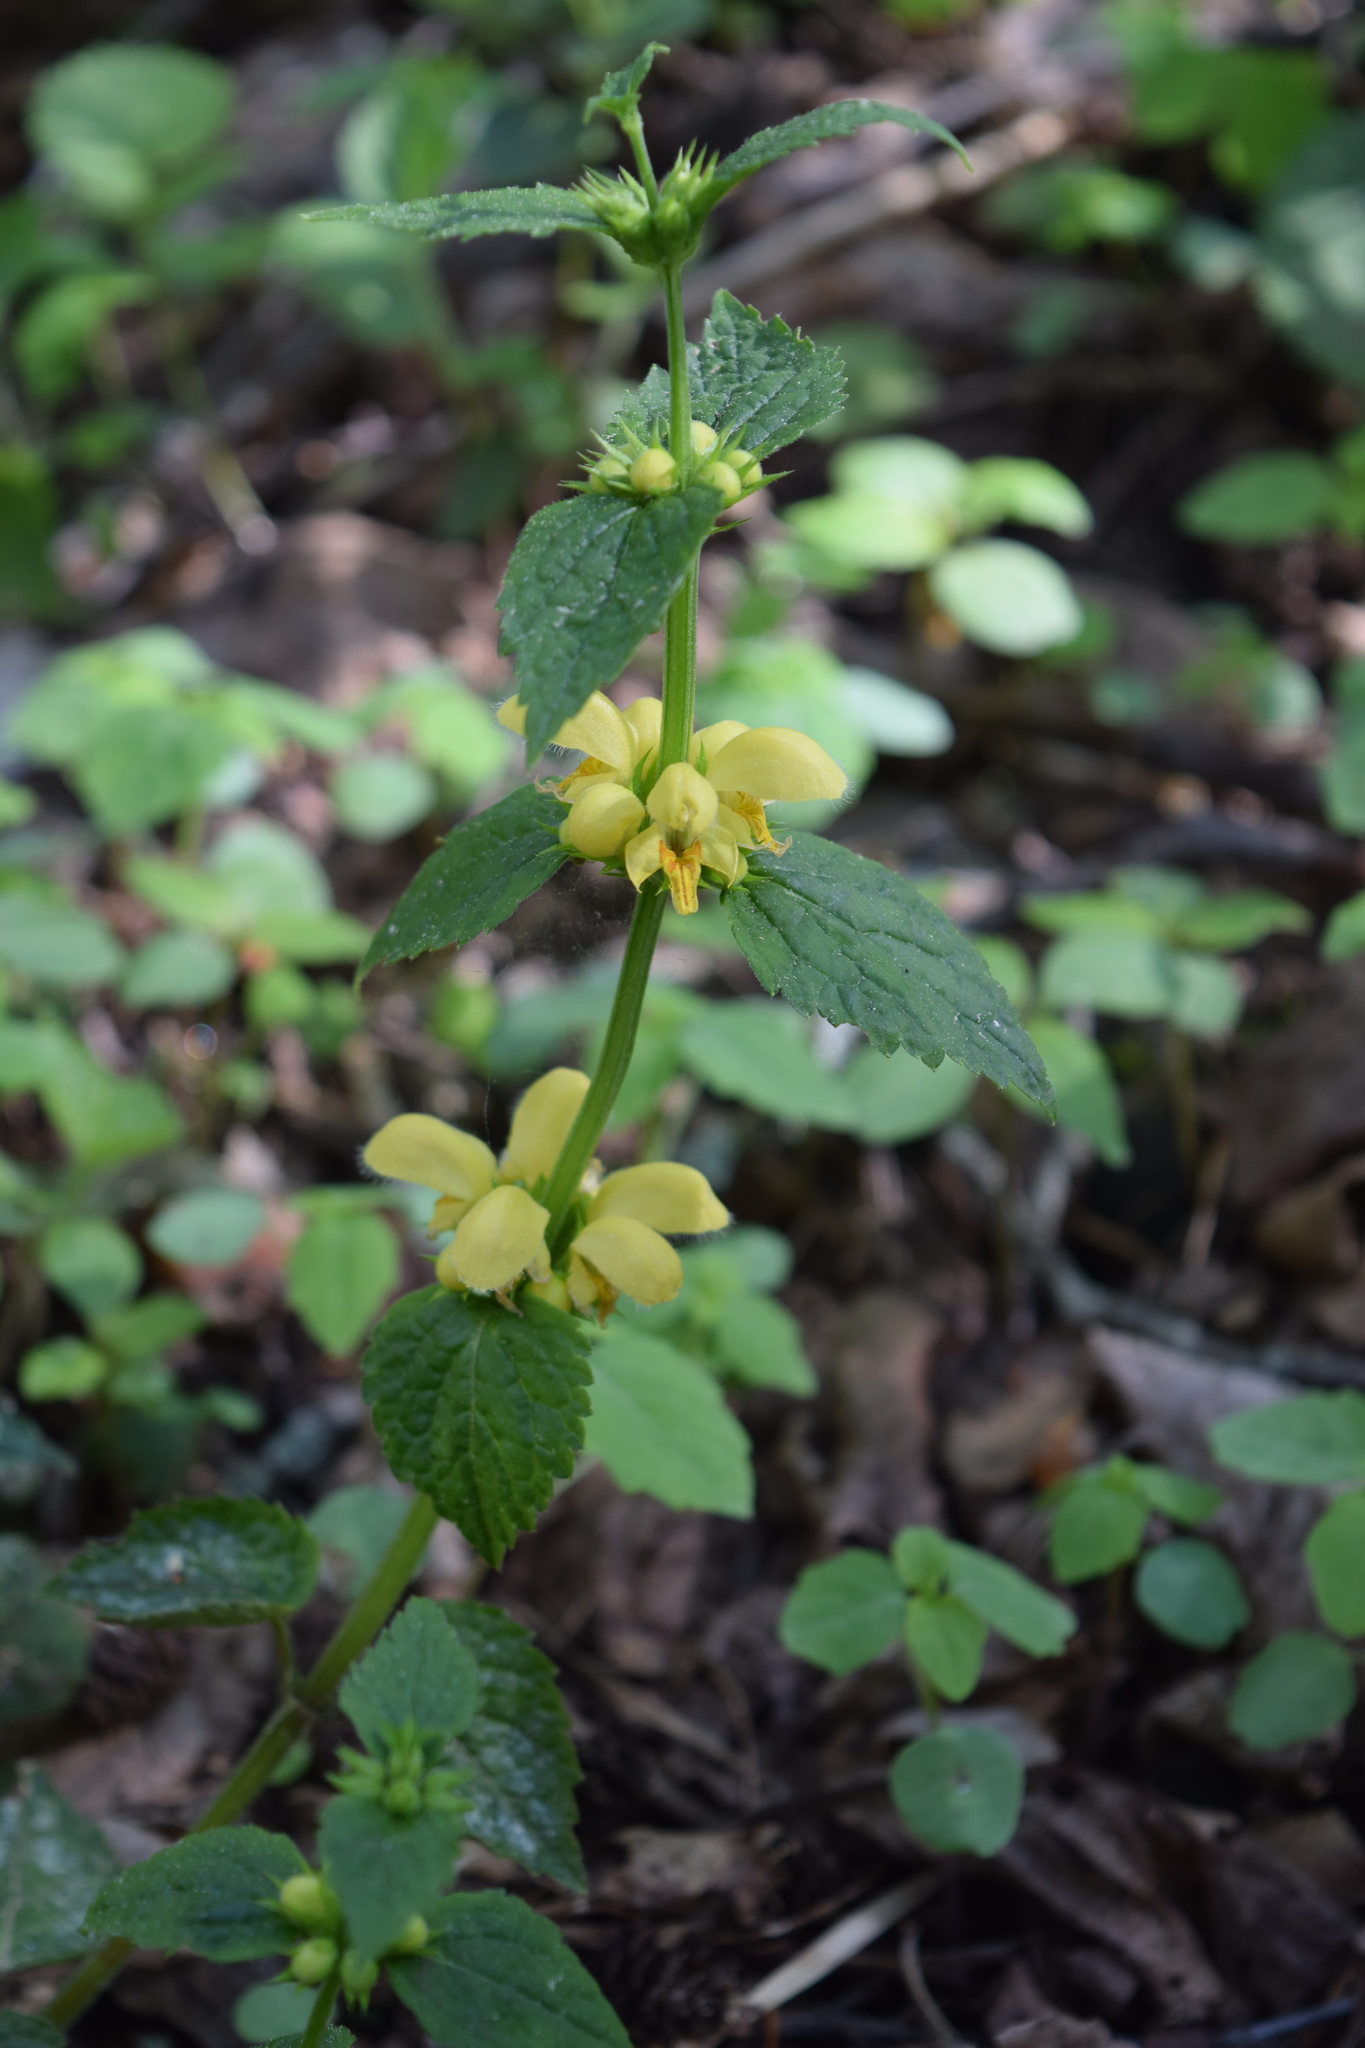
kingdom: Plantae
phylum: Tracheophyta
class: Magnoliopsida
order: Lamiales
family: Lamiaceae
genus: Lamium
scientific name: Lamium galeobdolon
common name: Yellow archangel
